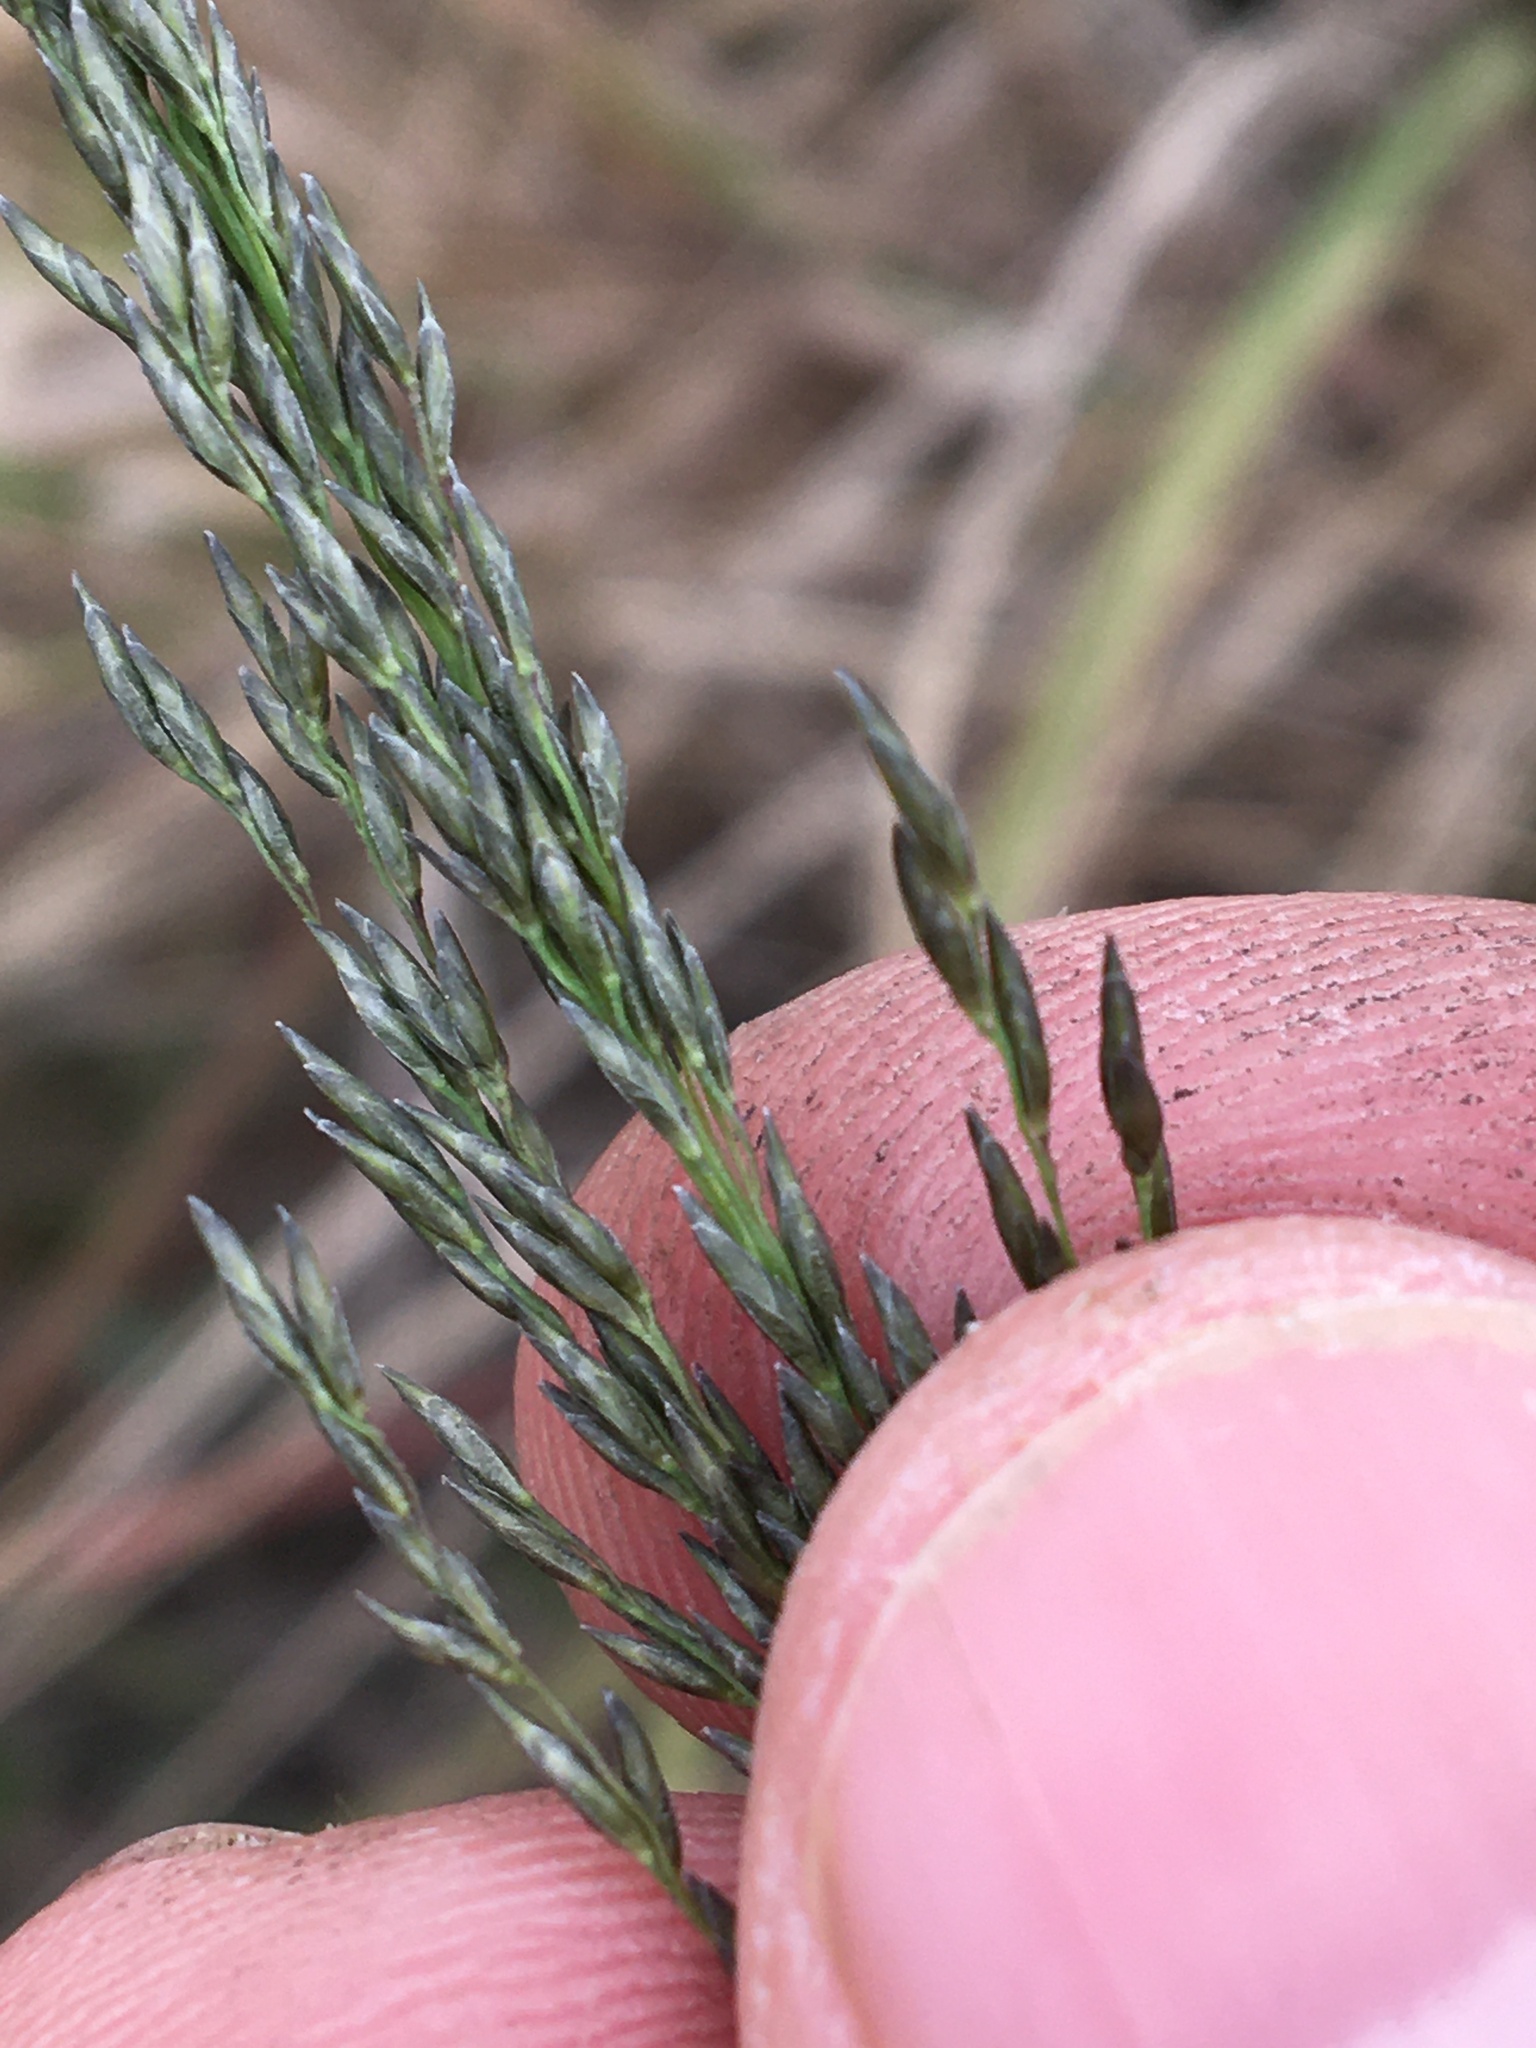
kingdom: Plantae
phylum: Tracheophyta
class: Liliopsida
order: Poales
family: Poaceae
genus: Eragrostis
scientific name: Eragrostis curvula
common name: African love-grass
